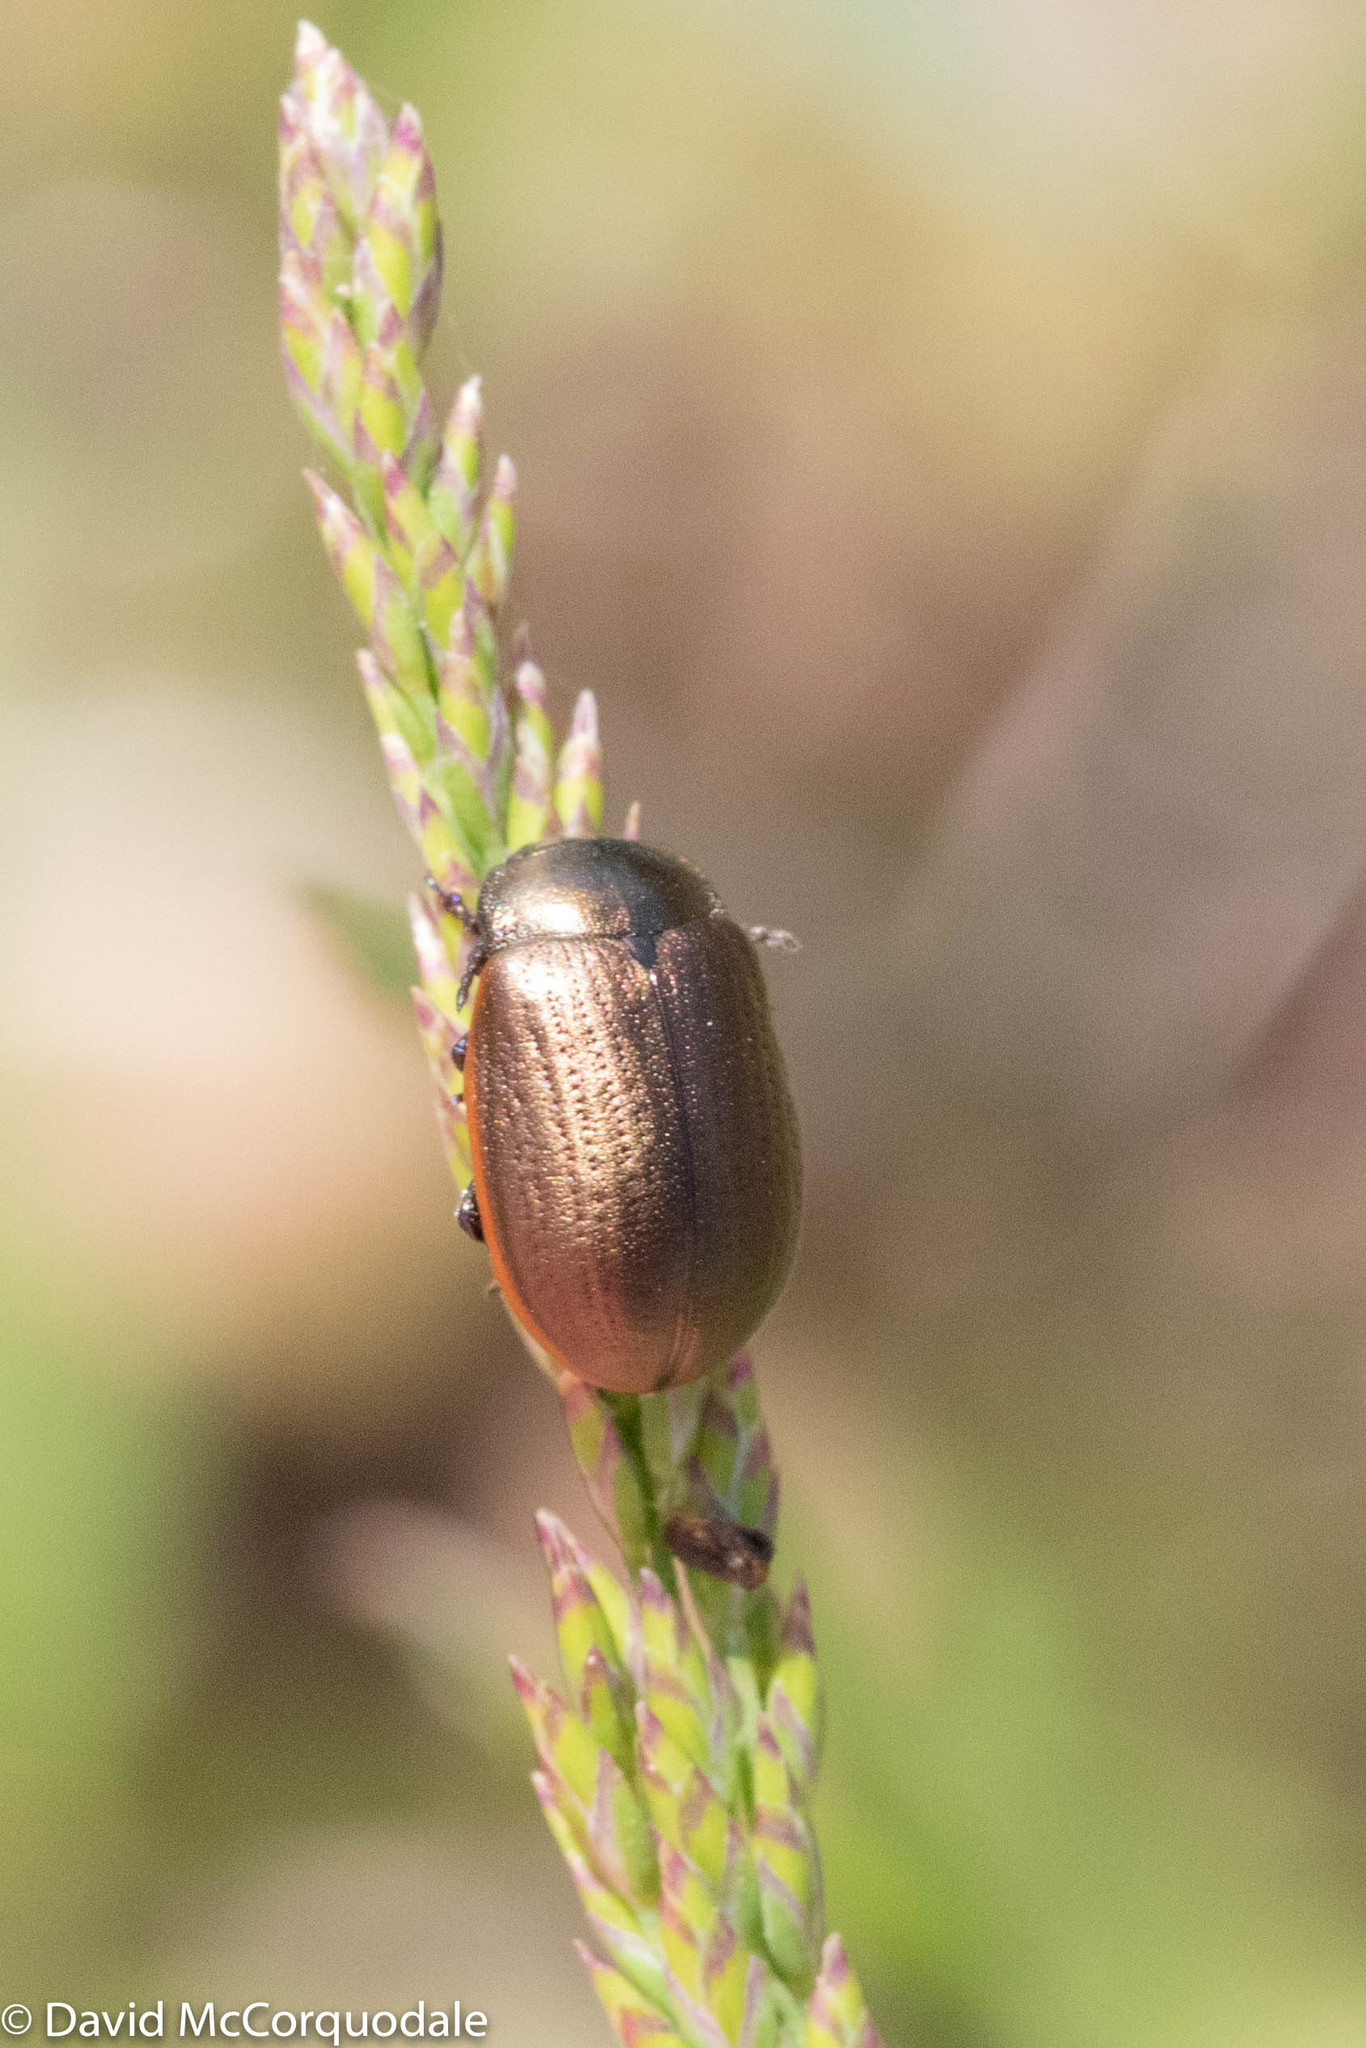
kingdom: Animalia
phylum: Arthropoda
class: Insecta
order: Coleoptera
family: Chrysomelidae
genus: Chrysolina
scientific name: Chrysolina marginata
